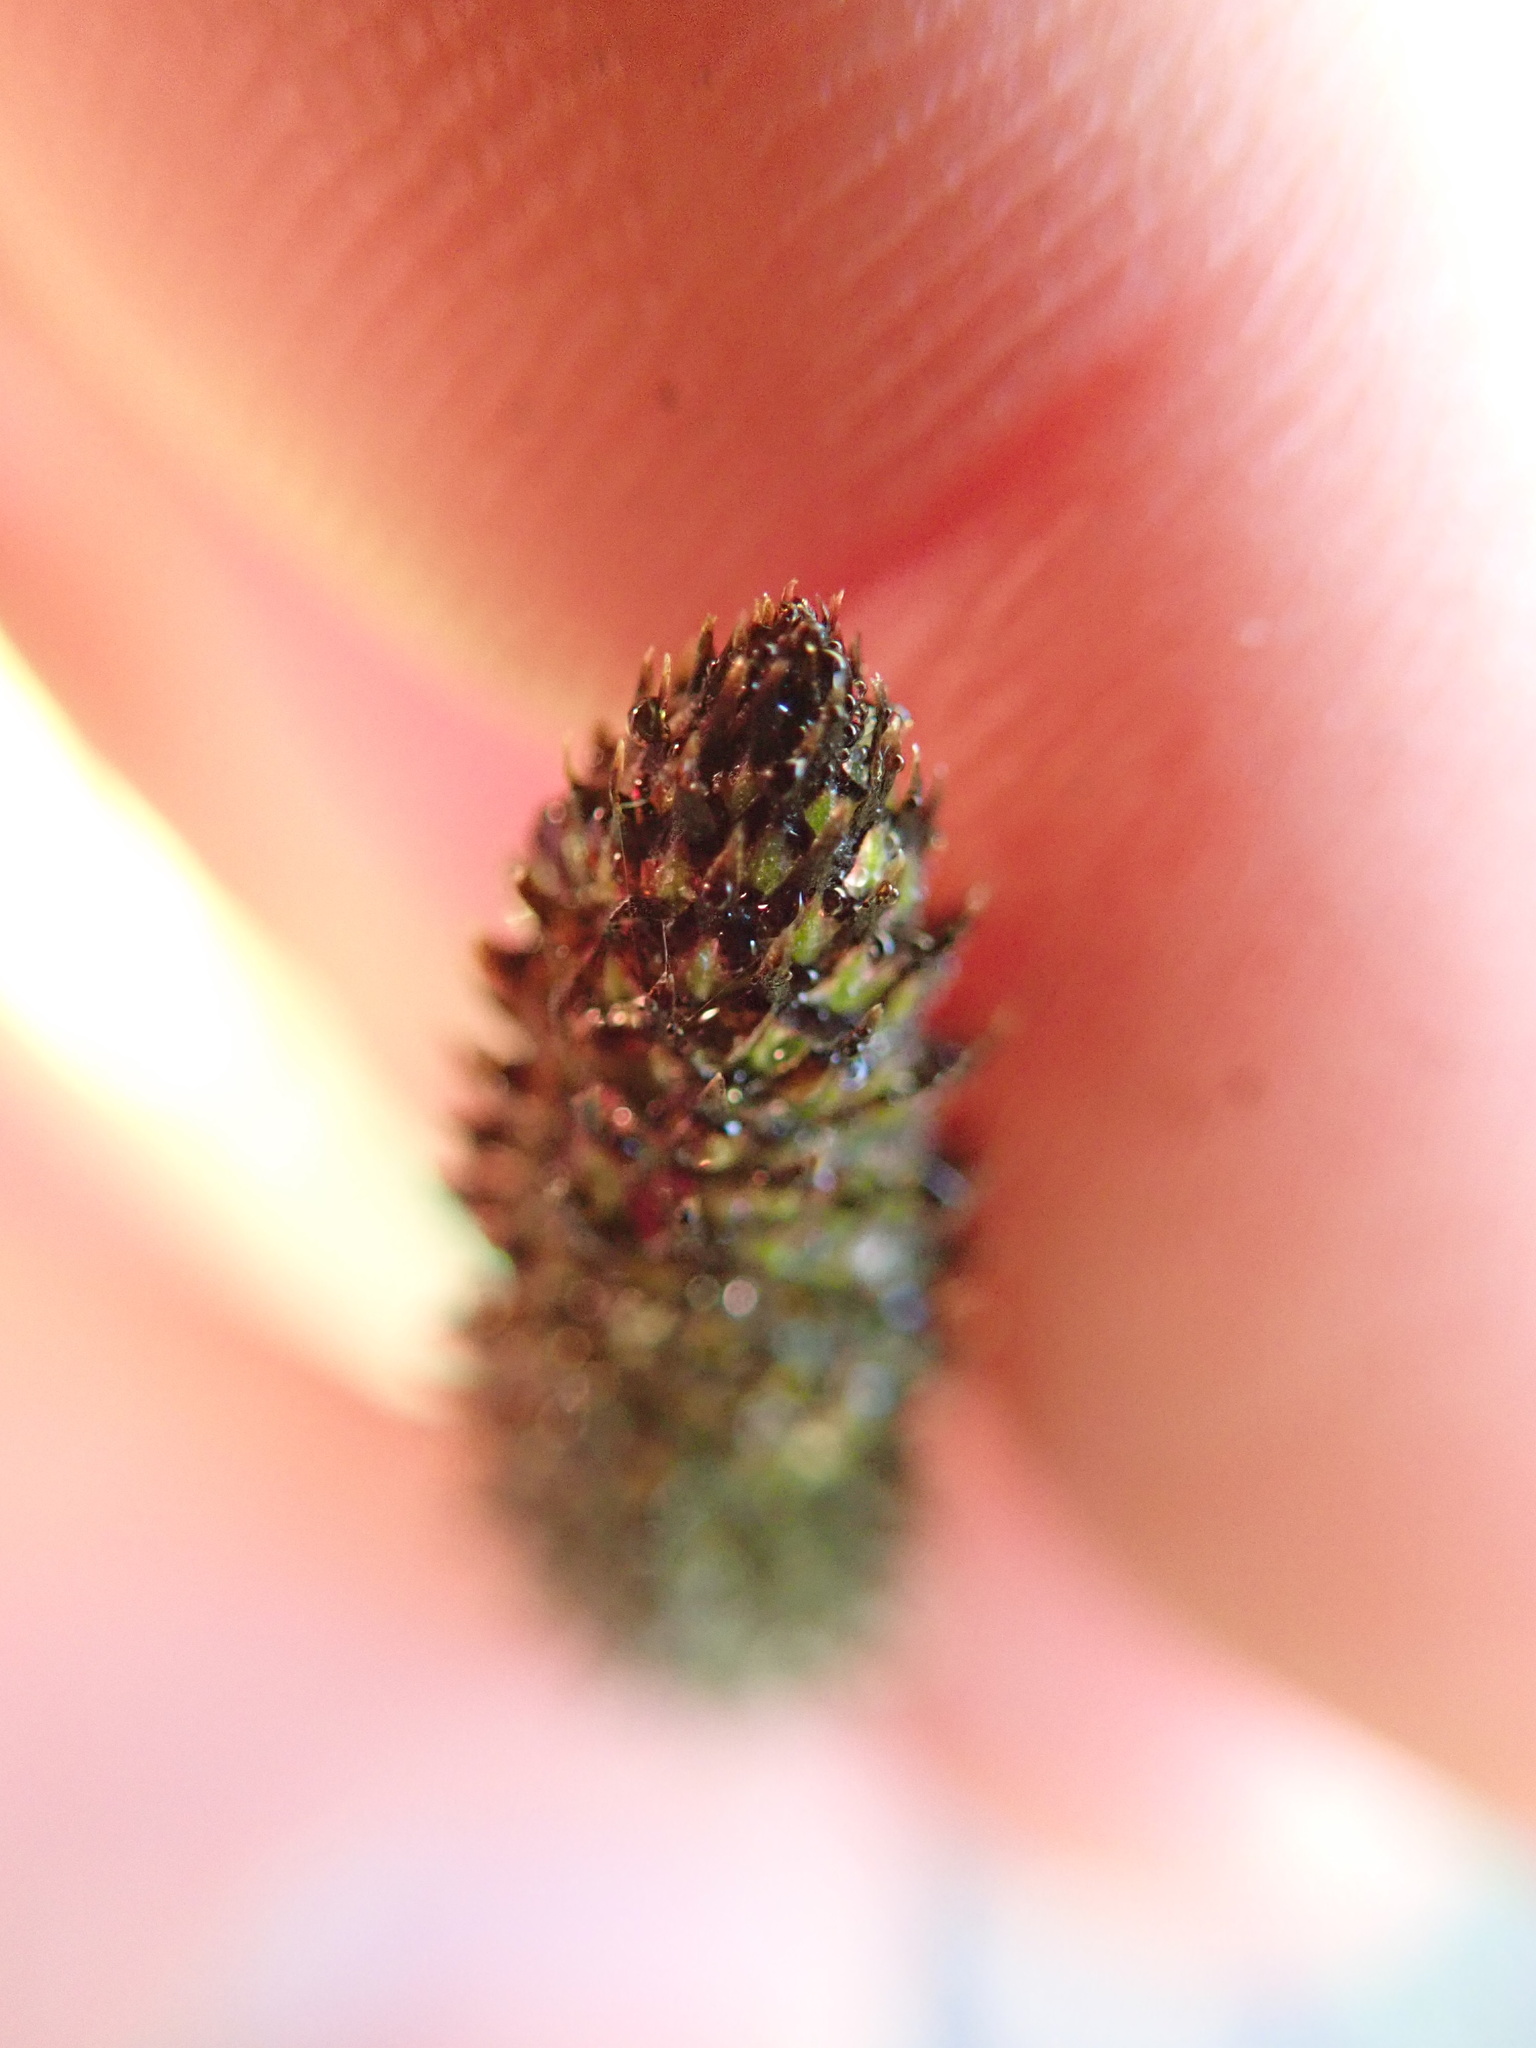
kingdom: Plantae
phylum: Tracheophyta
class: Magnoliopsida
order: Lamiales
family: Plantaginaceae
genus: Plantago
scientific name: Plantago lanceolata
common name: Ribwort plantain
